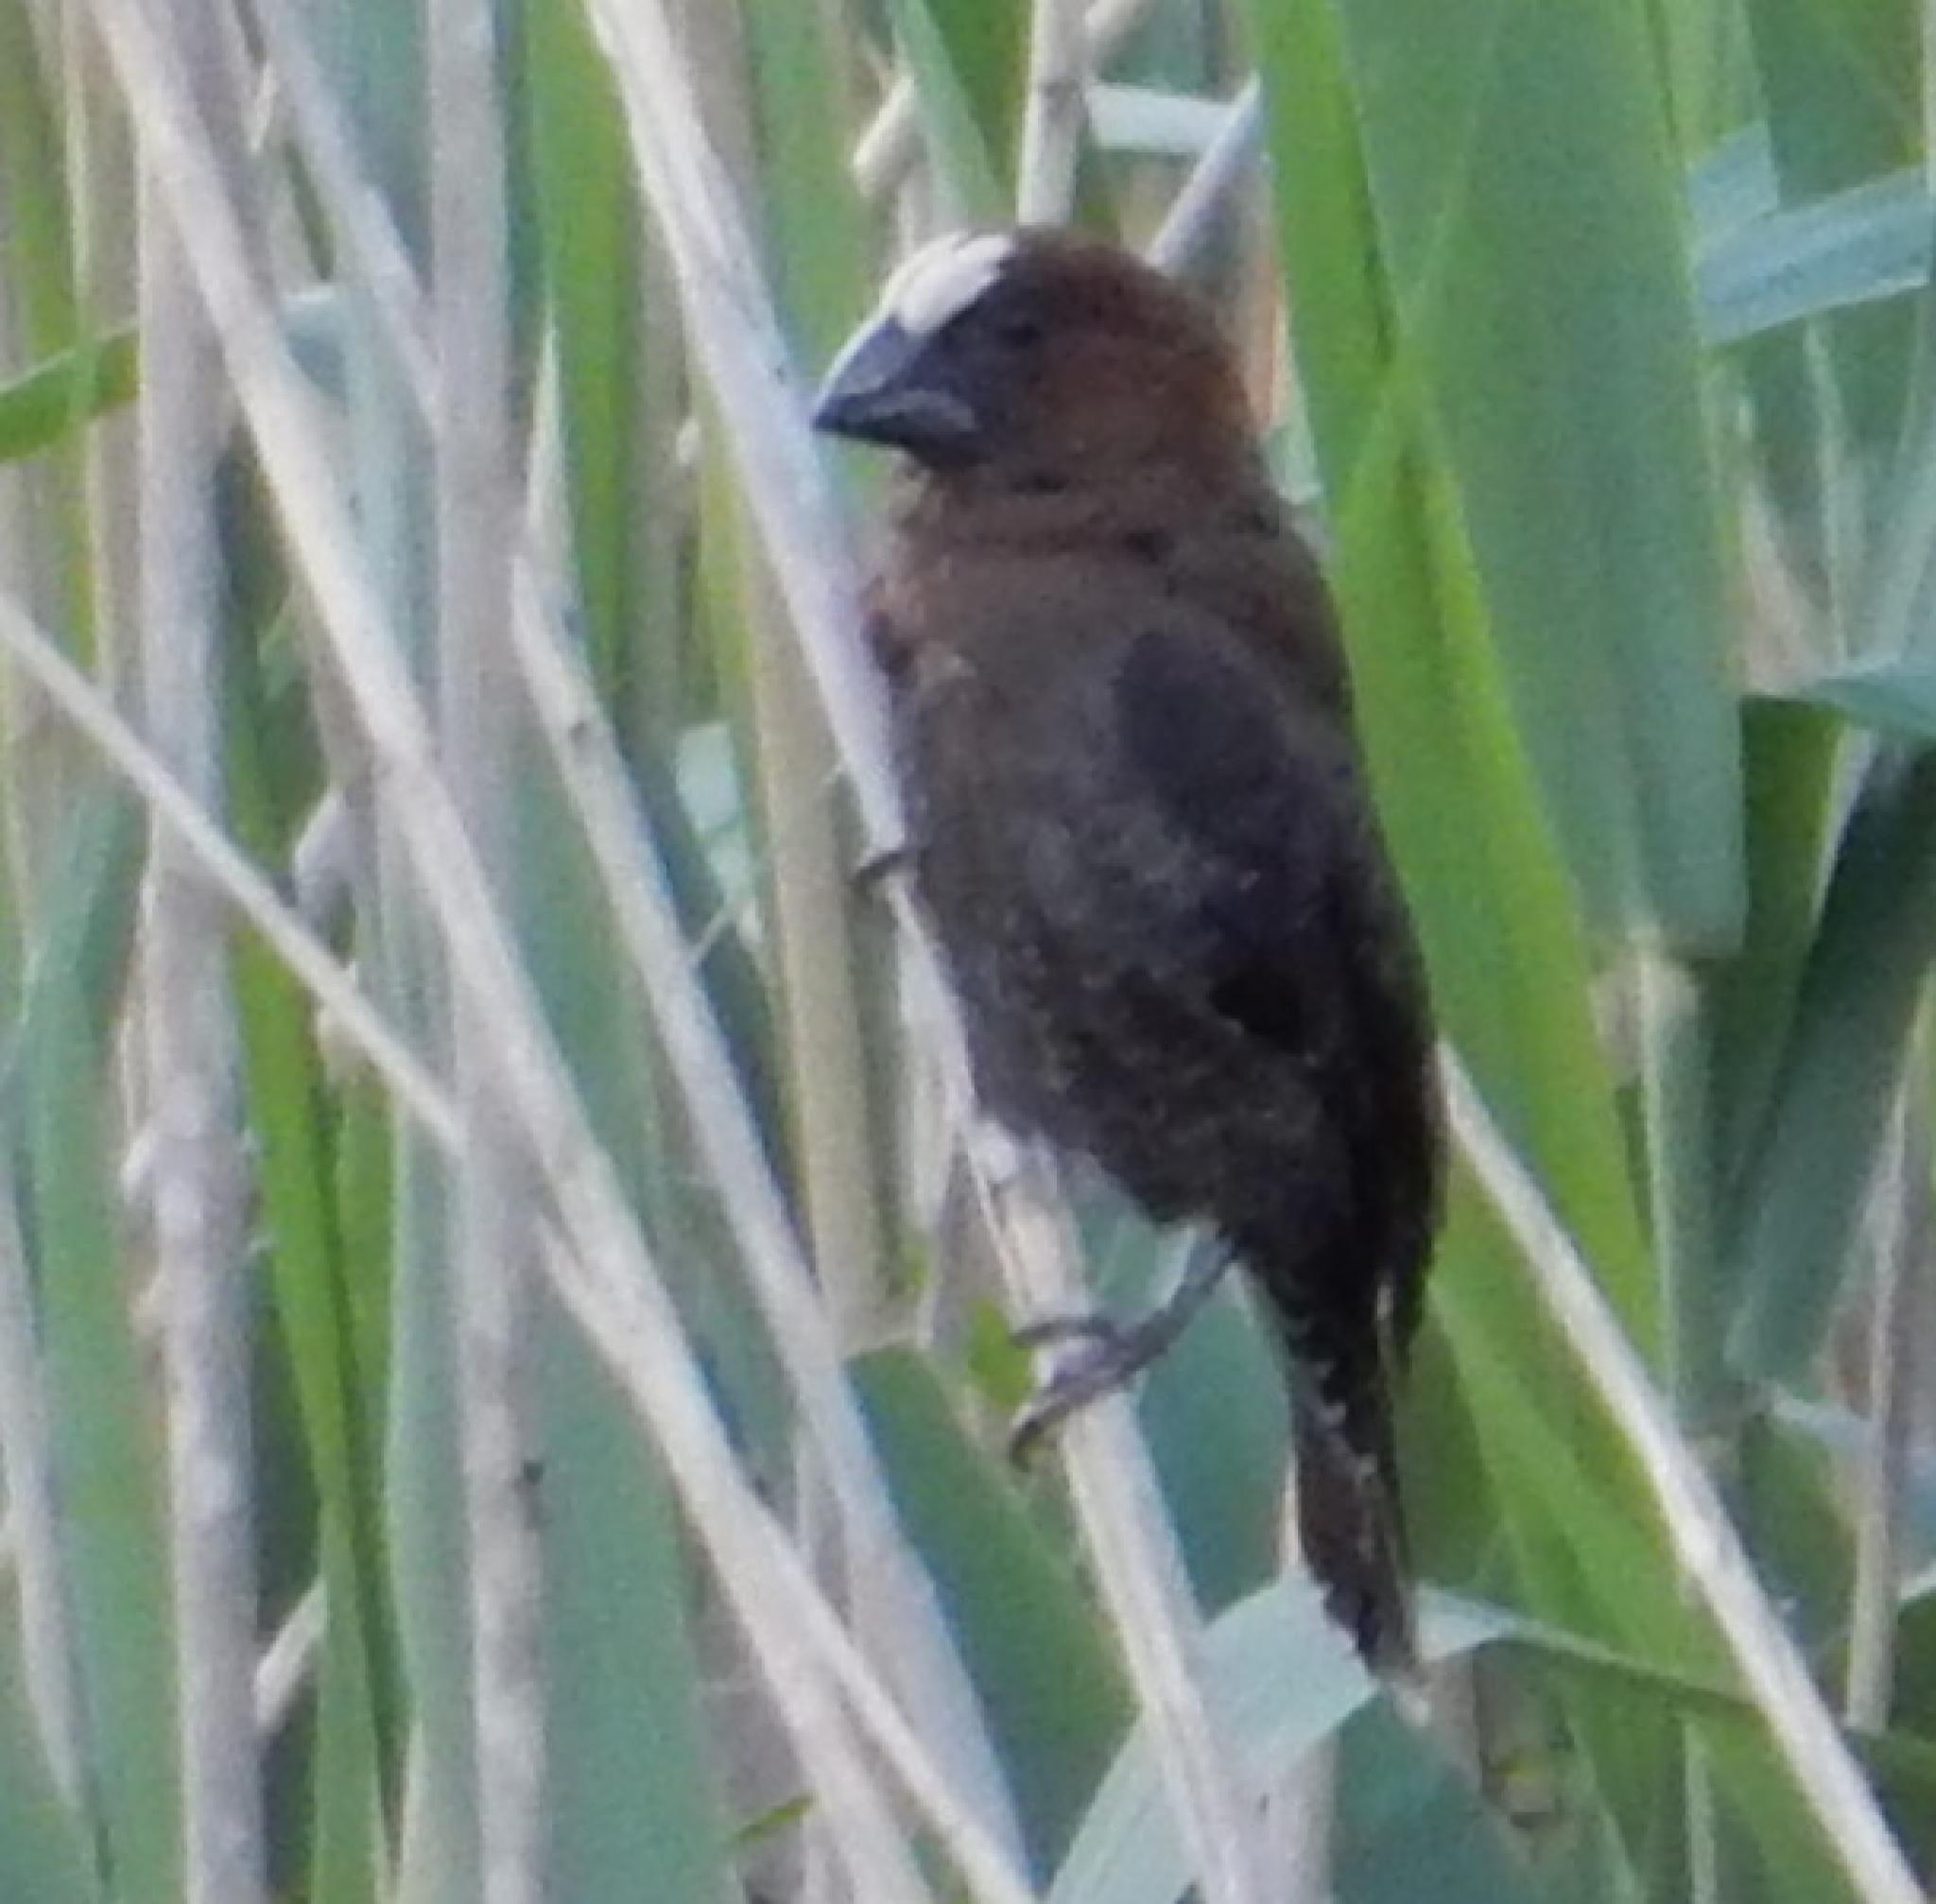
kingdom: Animalia
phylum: Chordata
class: Aves
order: Passeriformes
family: Ploceidae
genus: Amblyospiza
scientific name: Amblyospiza albifrons
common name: Thick-billed weaver
